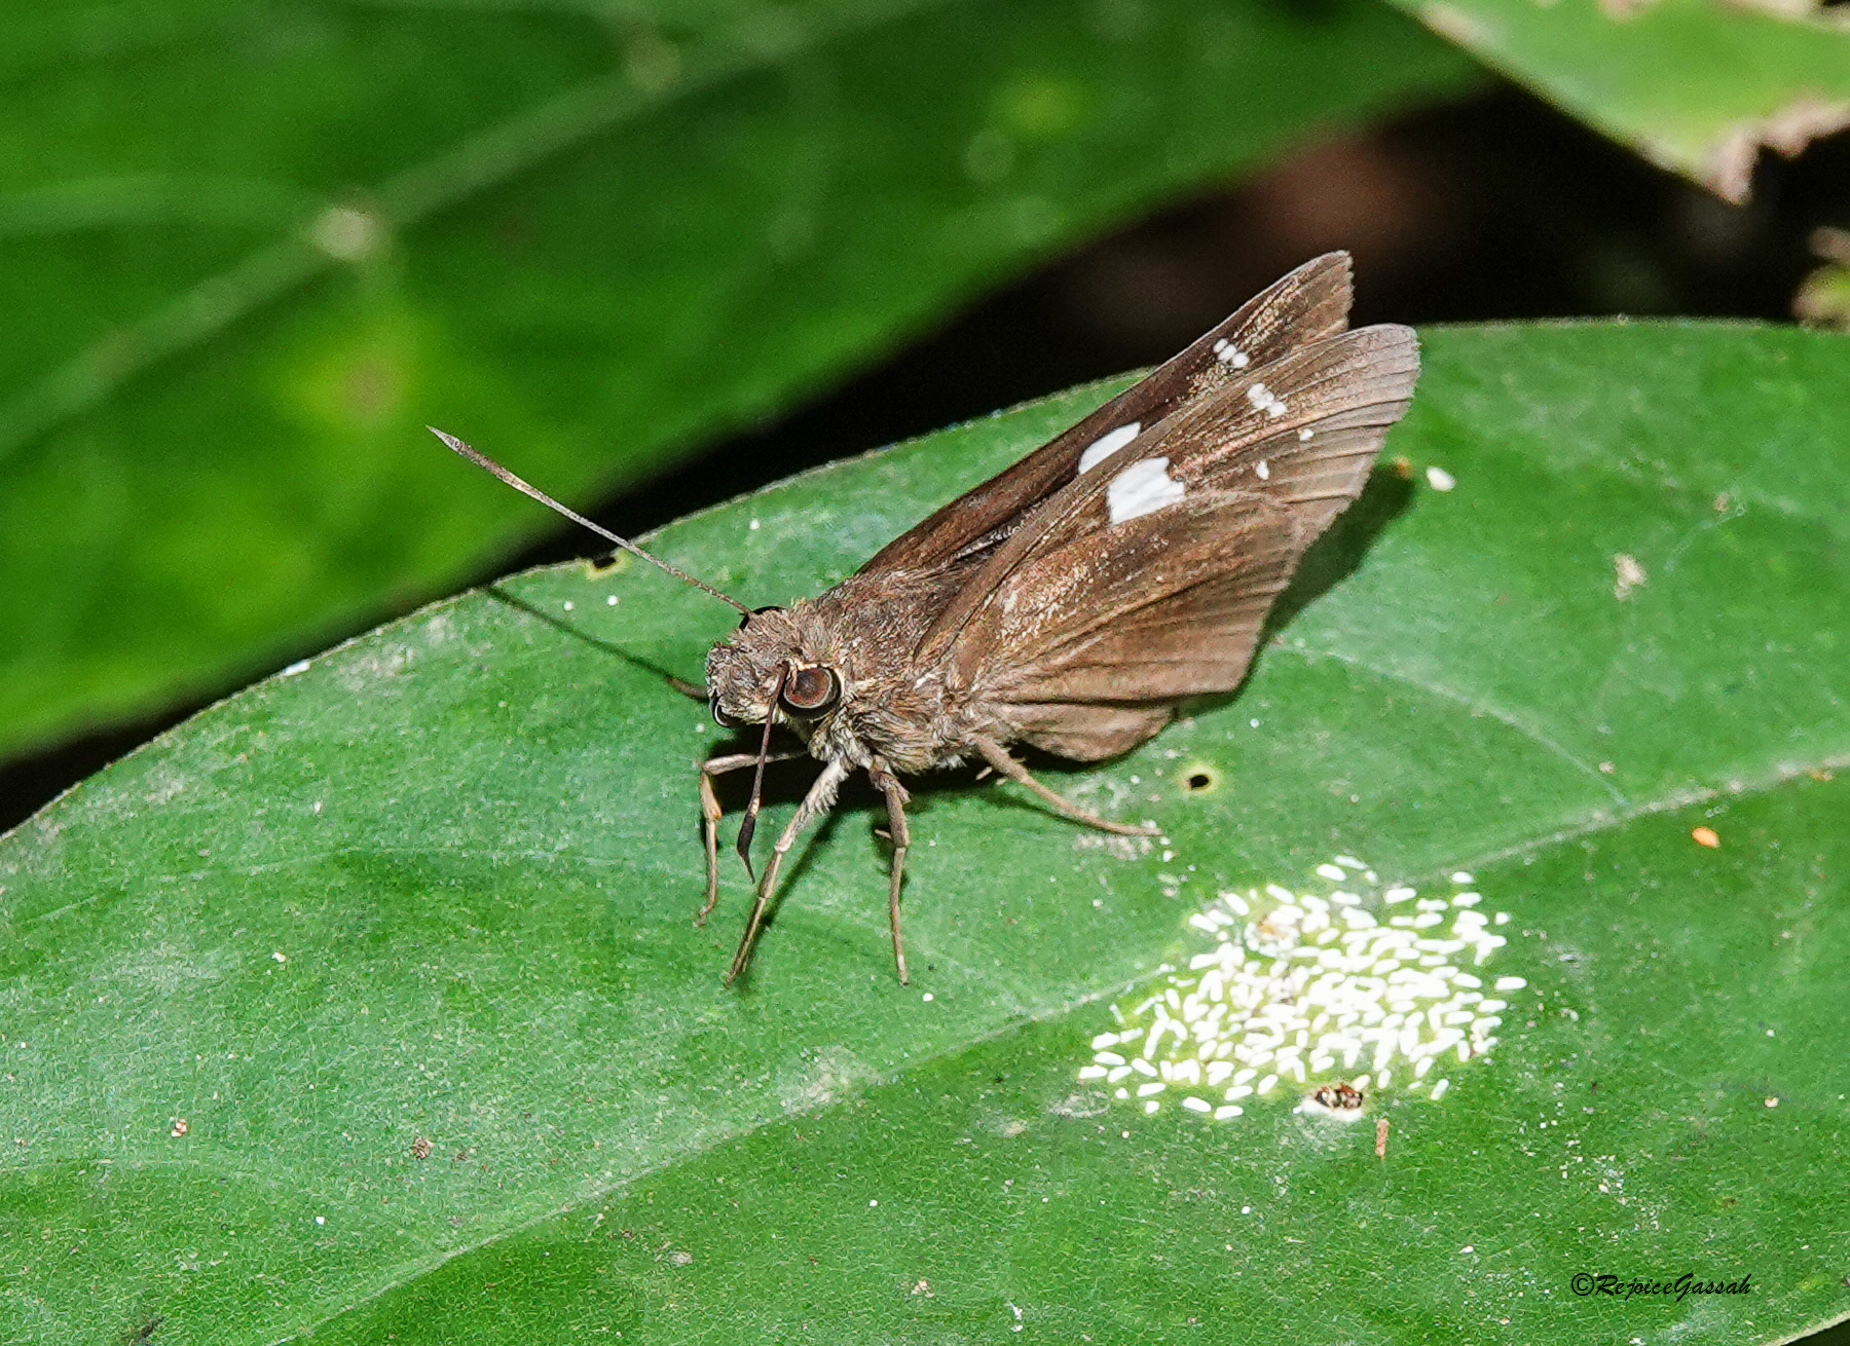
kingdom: Animalia
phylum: Arthropoda
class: Insecta
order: Lepidoptera
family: Hesperiidae
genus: Notocrypta
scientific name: Notocrypta curvifascia
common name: Restricted demon
